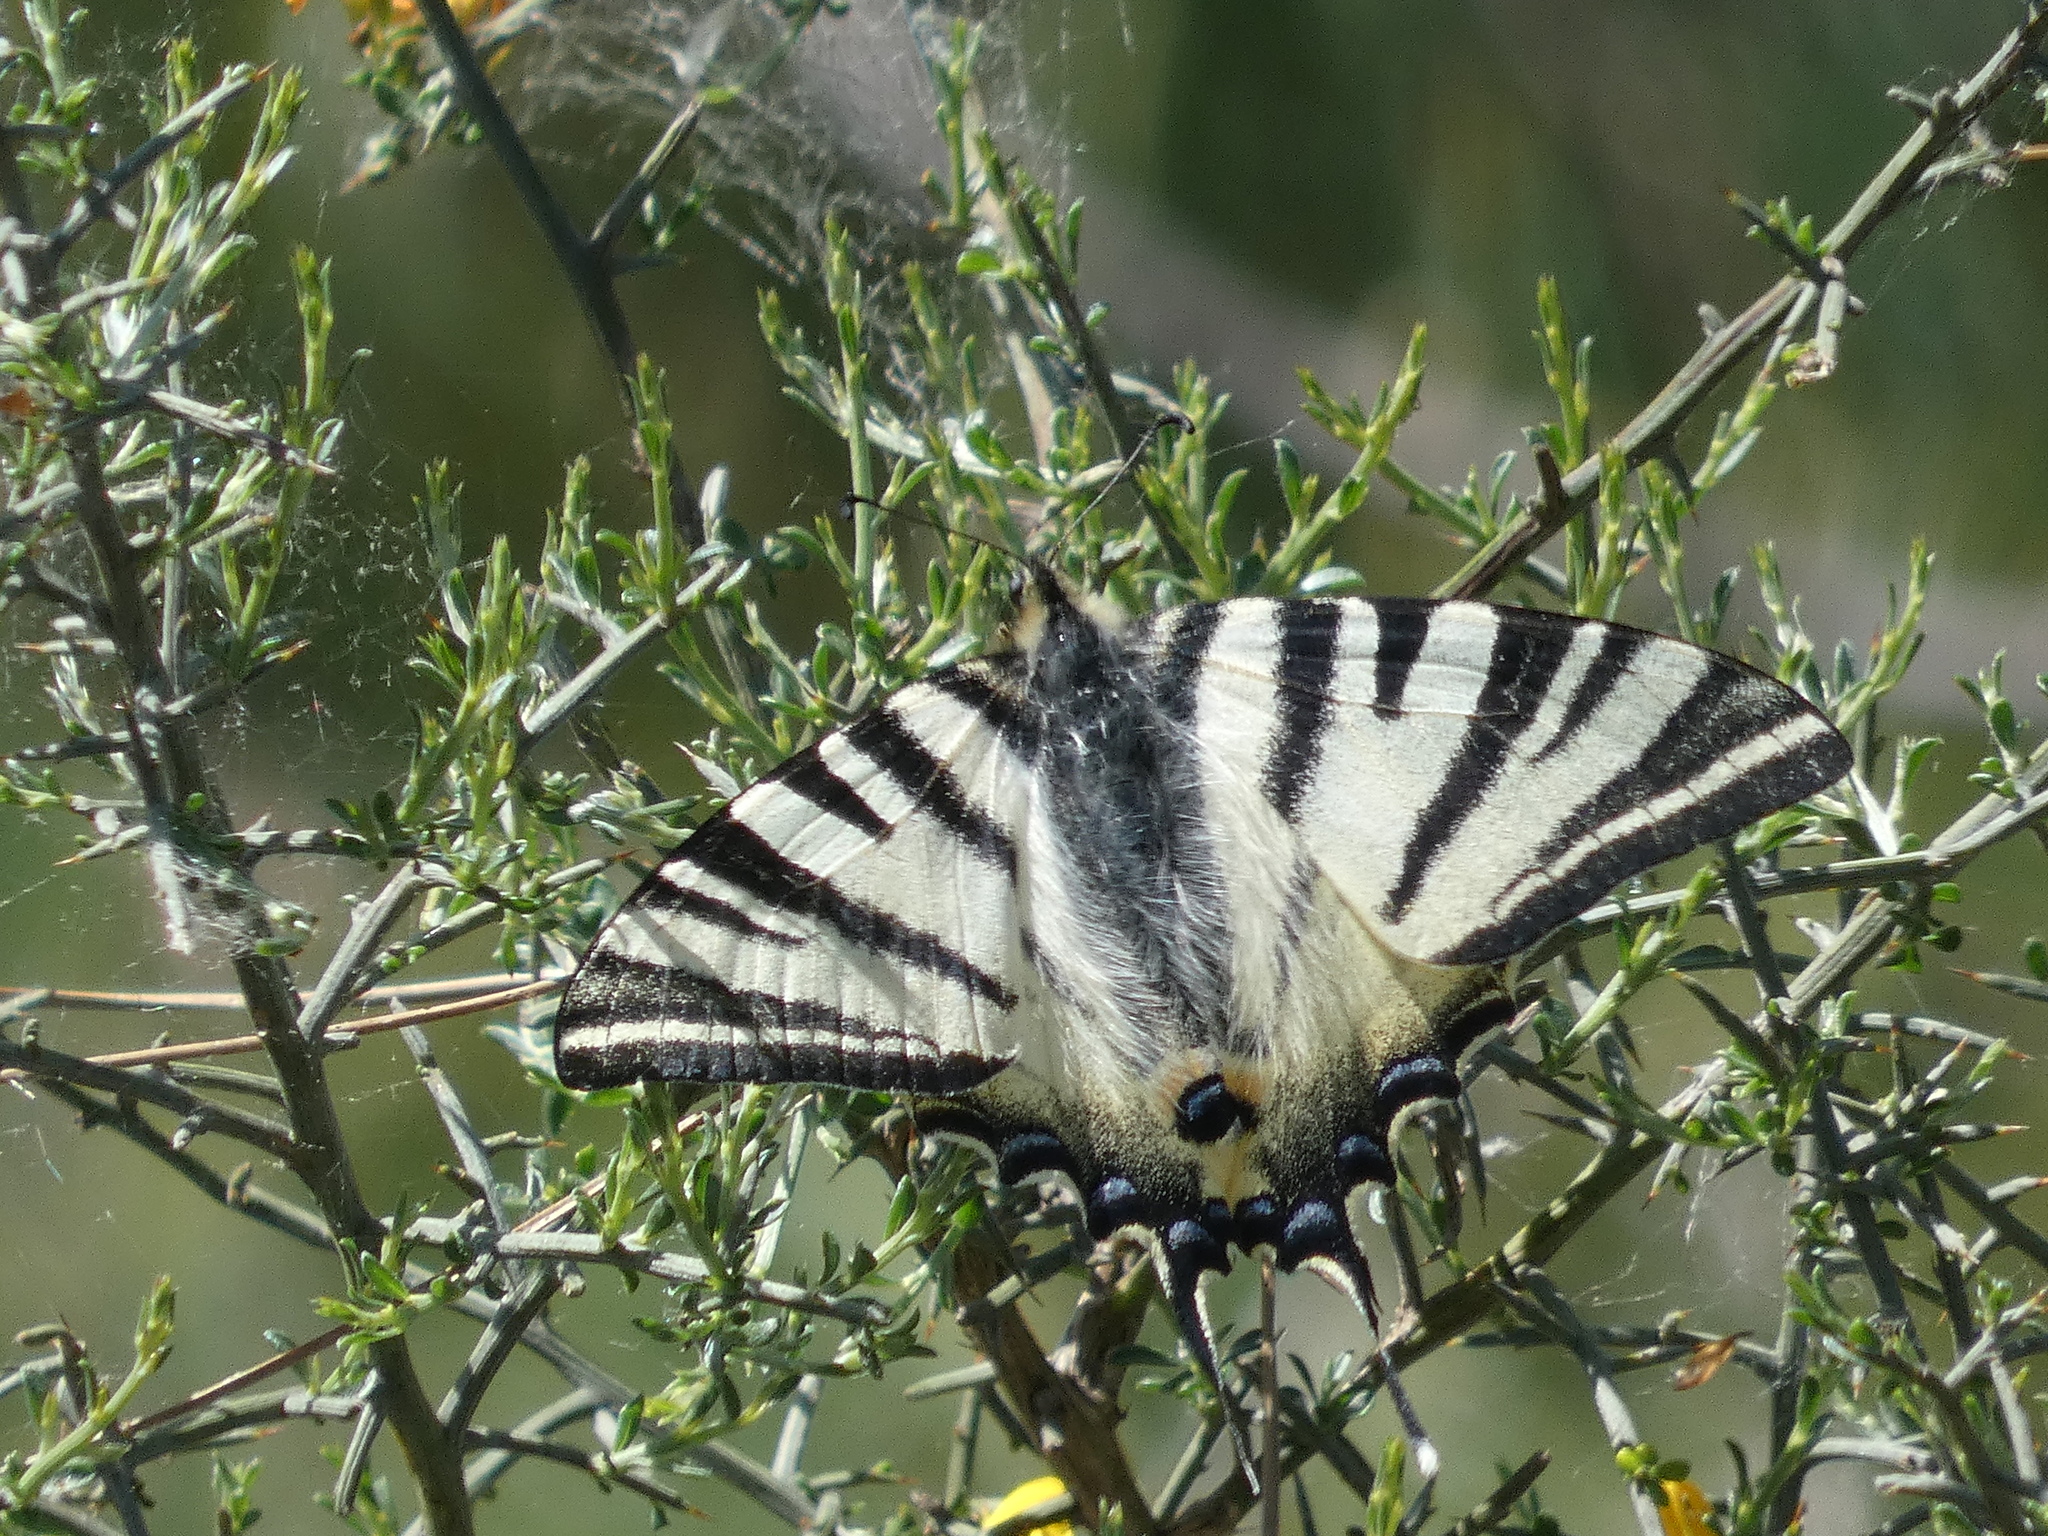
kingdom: Animalia
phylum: Arthropoda
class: Insecta
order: Lepidoptera
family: Papilionidae
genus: Iphiclides
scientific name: Iphiclides podalirius
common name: Scarce swallowtail
